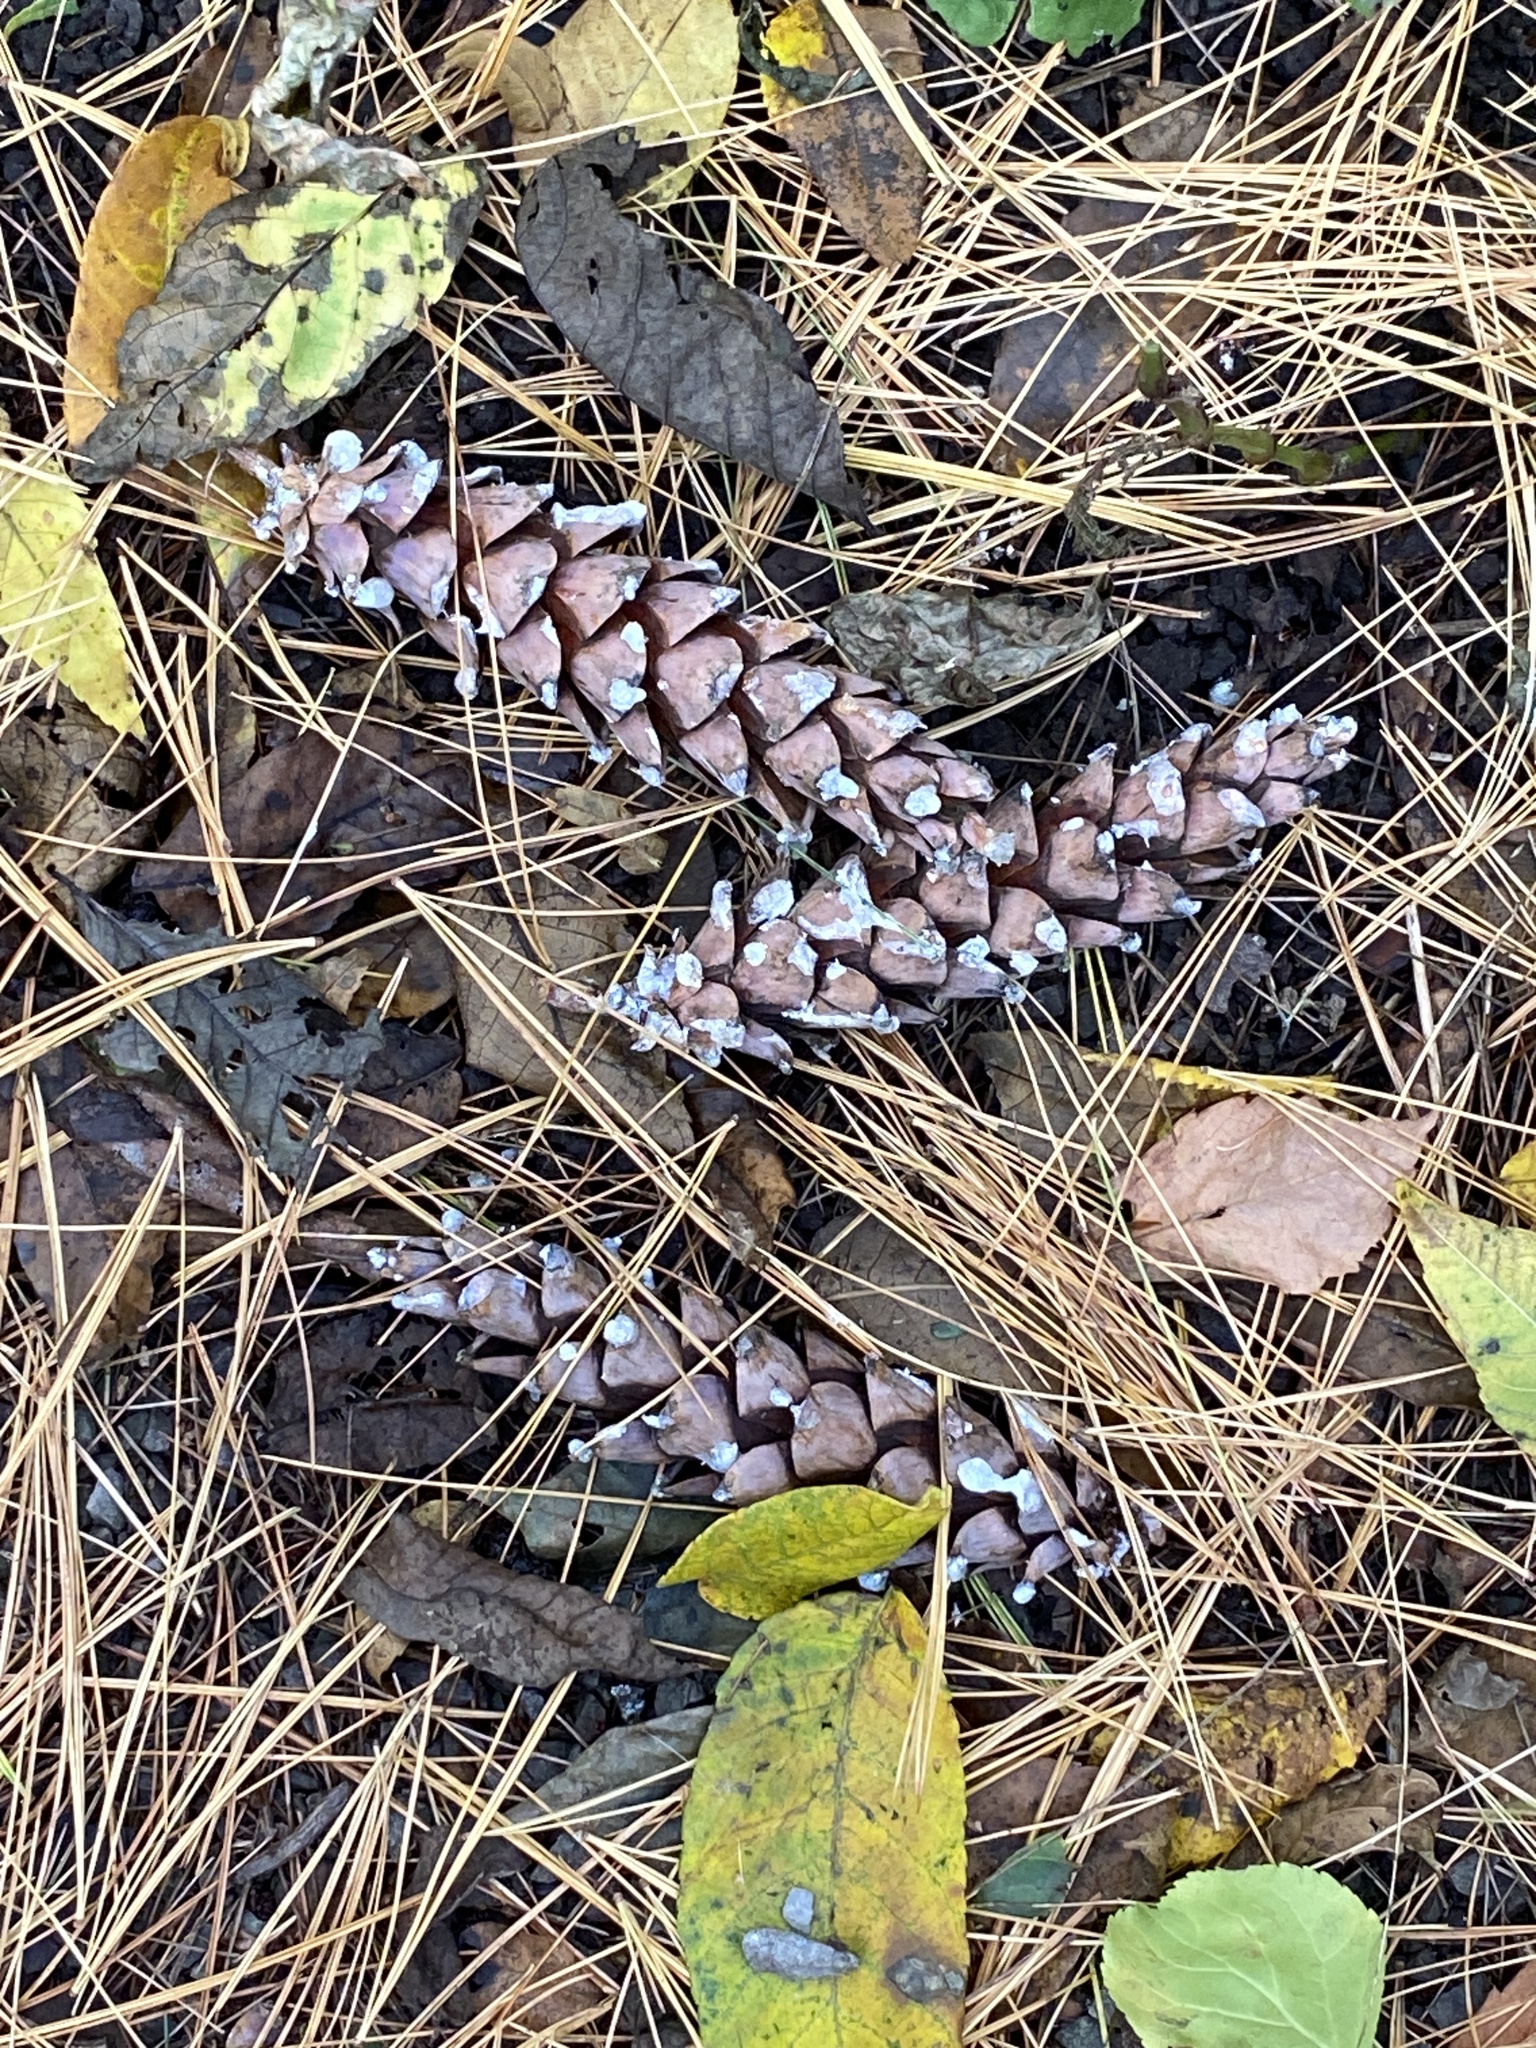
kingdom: Plantae
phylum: Tracheophyta
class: Pinopsida
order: Pinales
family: Pinaceae
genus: Pinus
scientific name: Pinus strobus
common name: Weymouth pine
